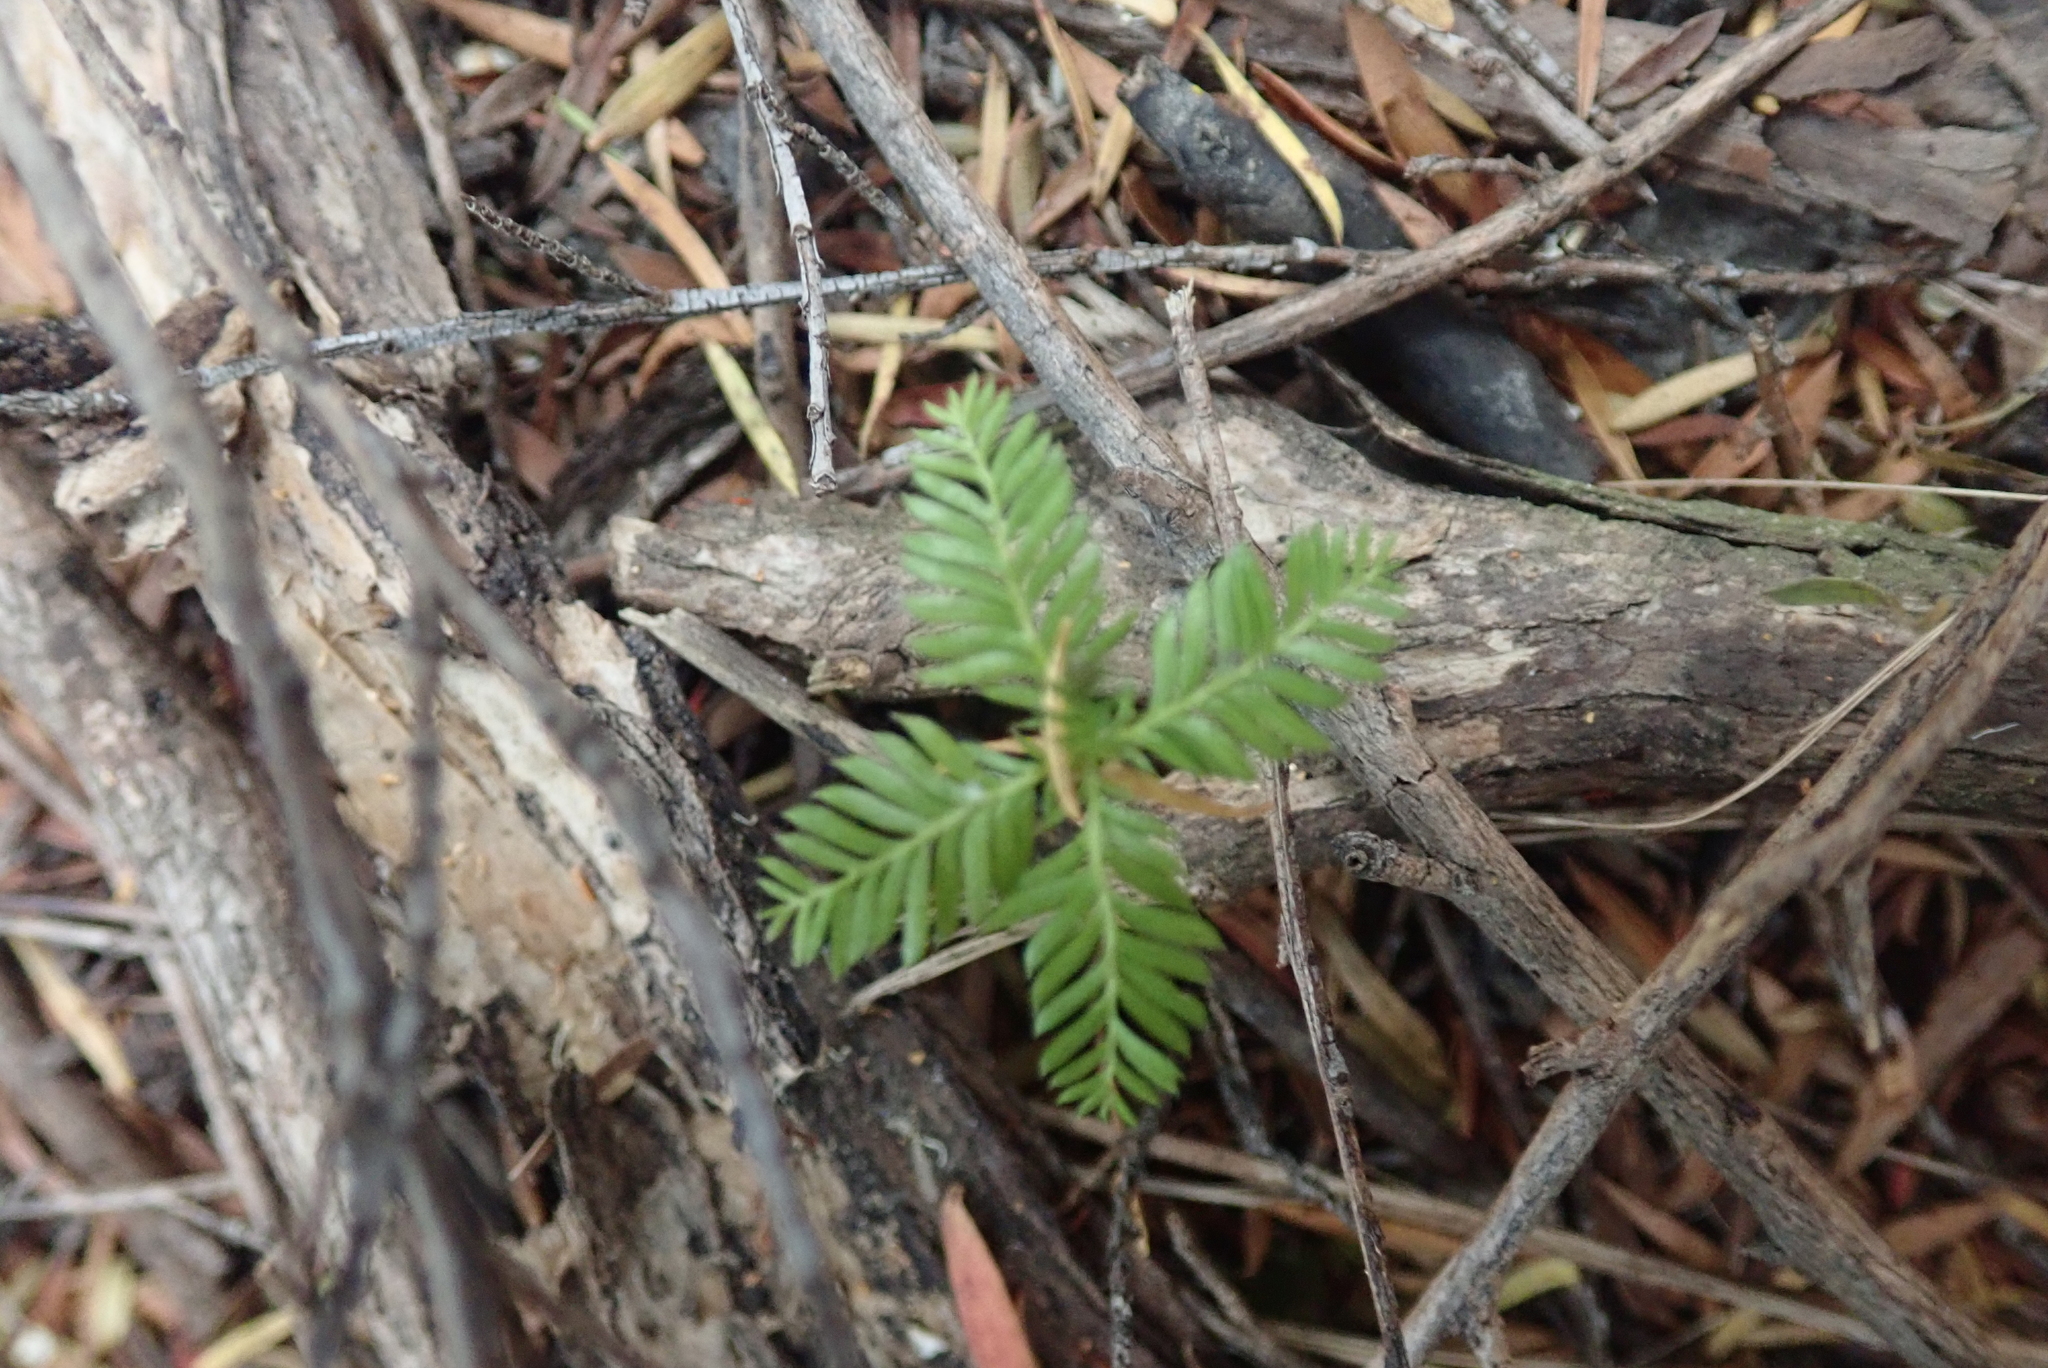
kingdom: Plantae
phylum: Tracheophyta
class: Pinopsida
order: Pinales
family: Podocarpaceae
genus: Dacrycarpus
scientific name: Dacrycarpus dacrydioides
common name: White pine
